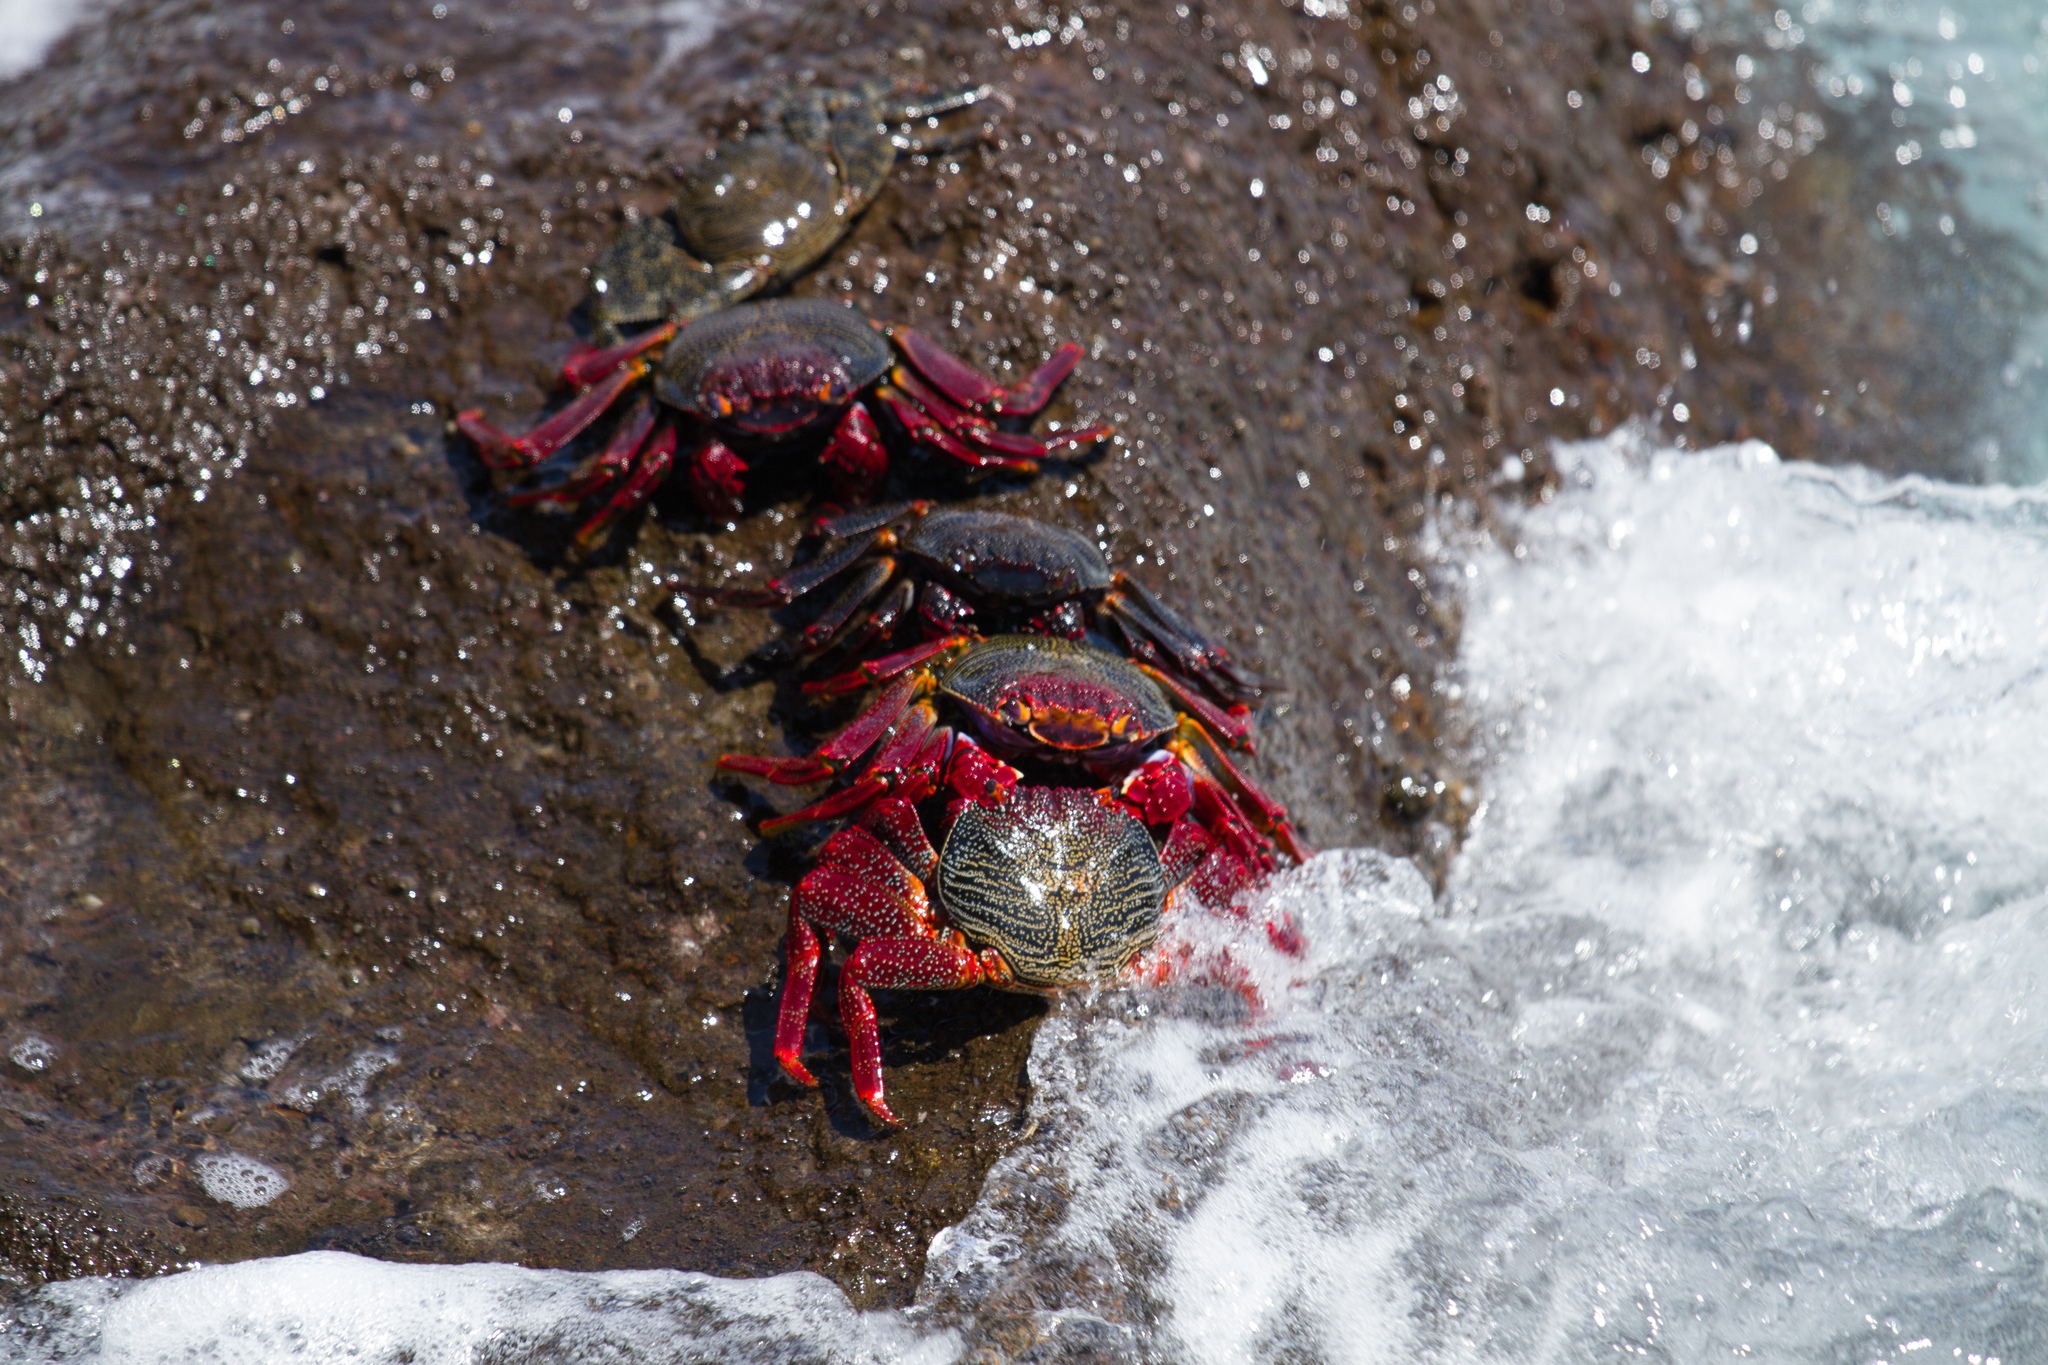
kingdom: Animalia
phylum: Arthropoda
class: Malacostraca
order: Decapoda
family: Grapsidae
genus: Grapsus
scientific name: Grapsus adscensionis
